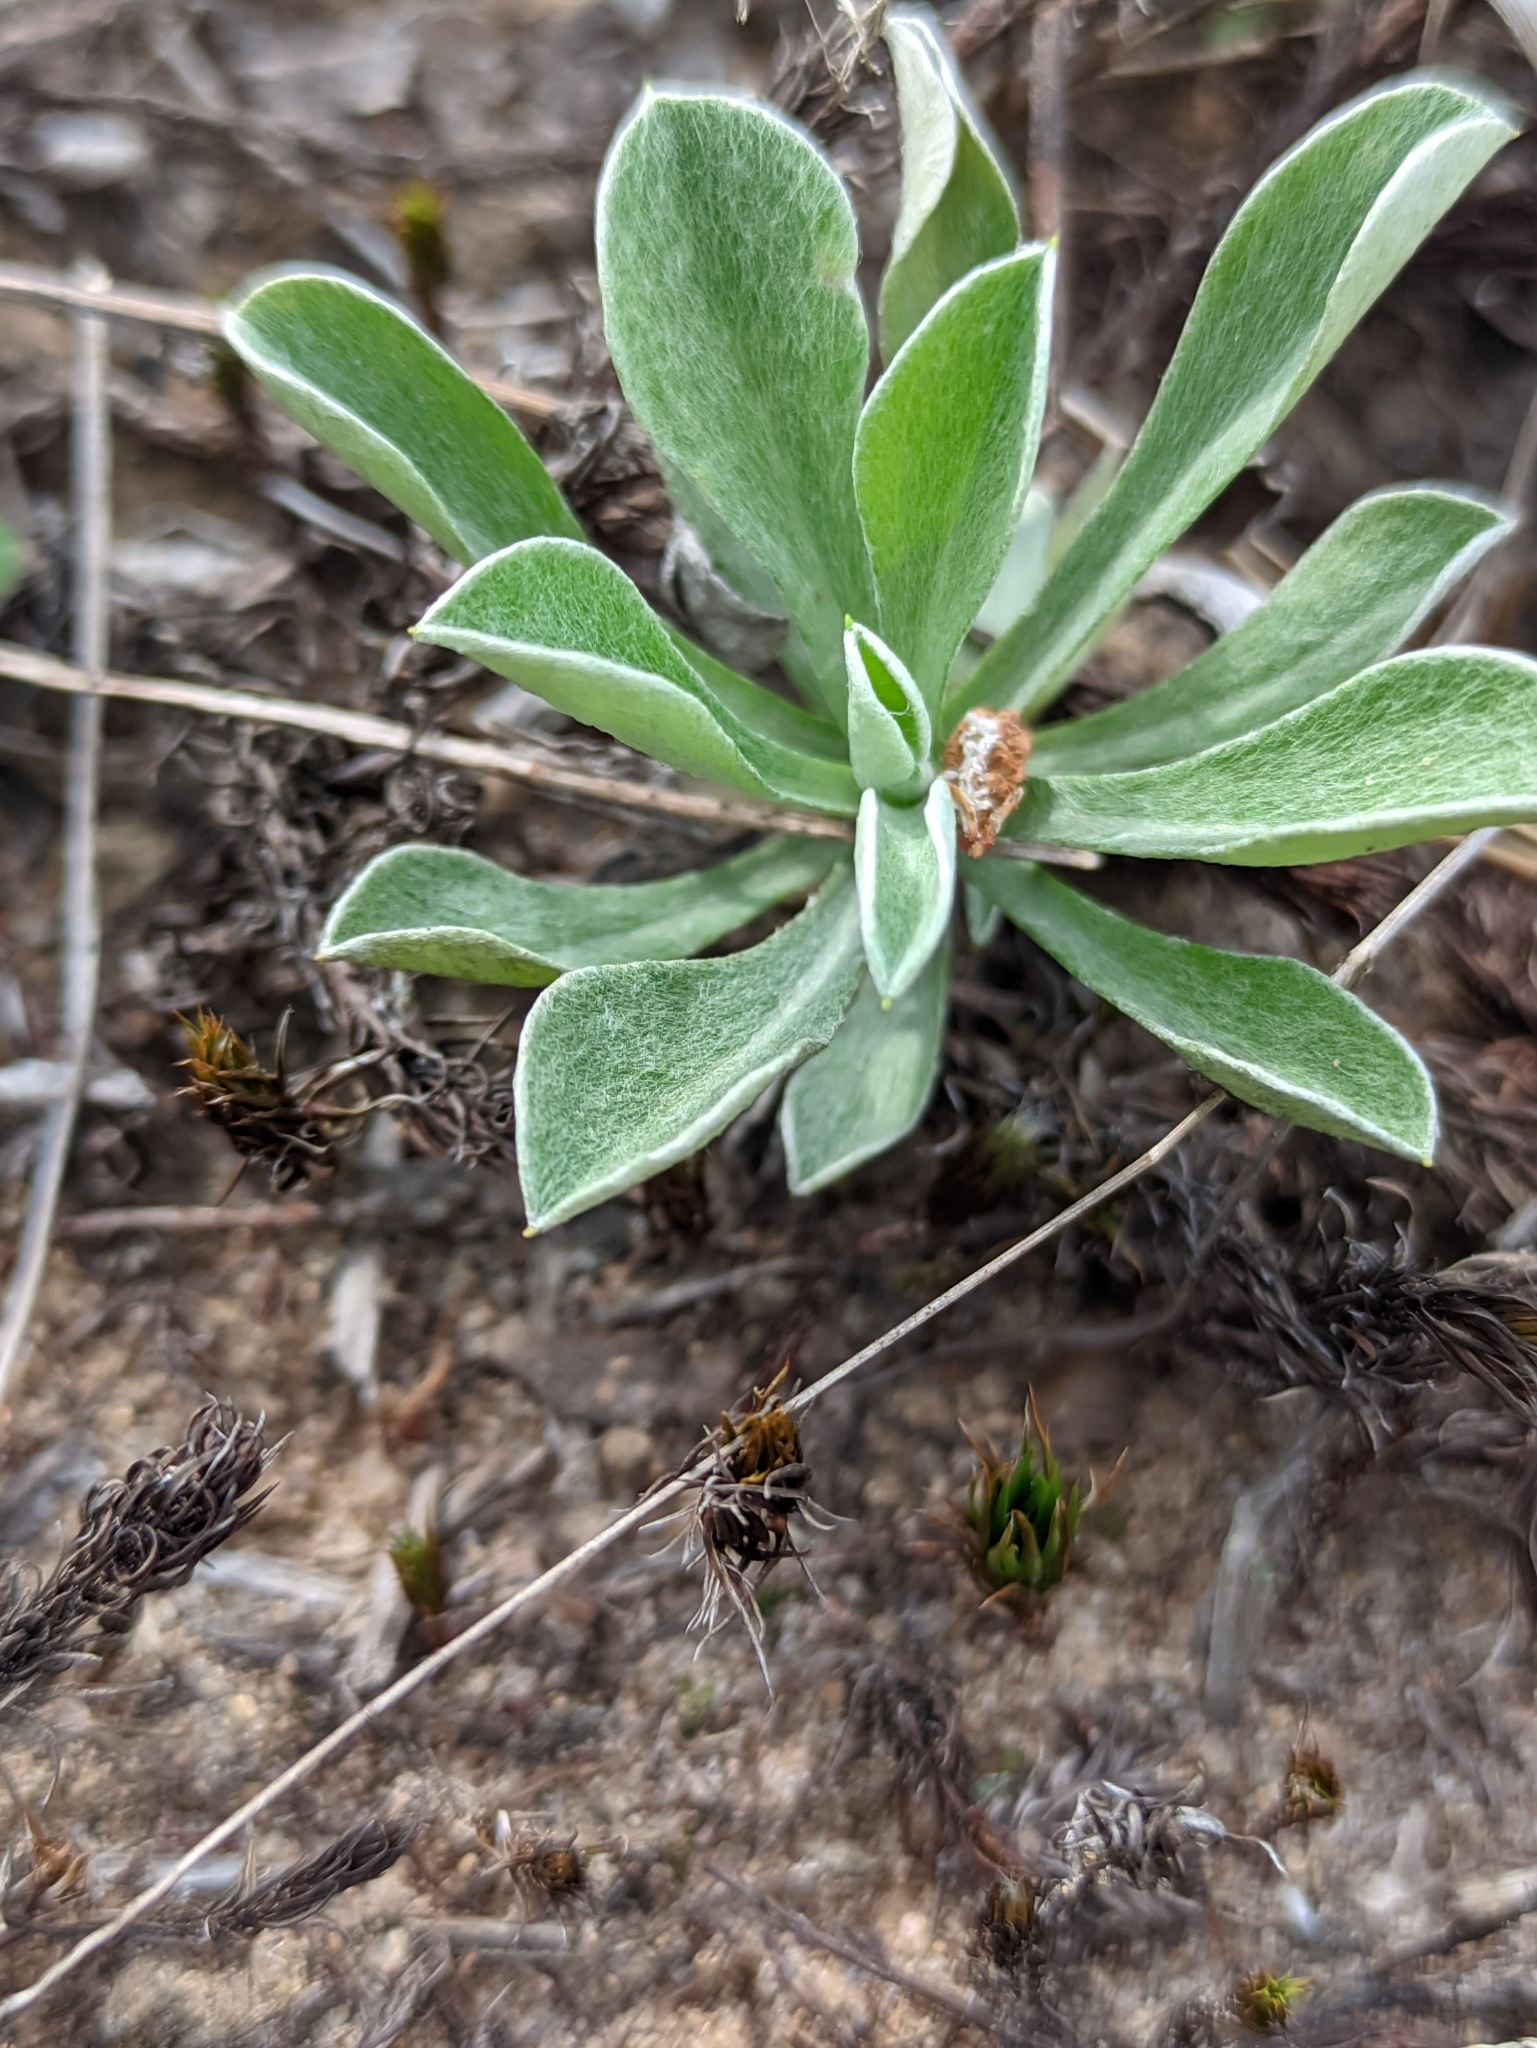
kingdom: Plantae
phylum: Tracheophyta
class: Magnoliopsida
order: Asterales
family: Asteraceae
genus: Antennaria
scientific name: Antennaria dioica
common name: Mountain everlasting
